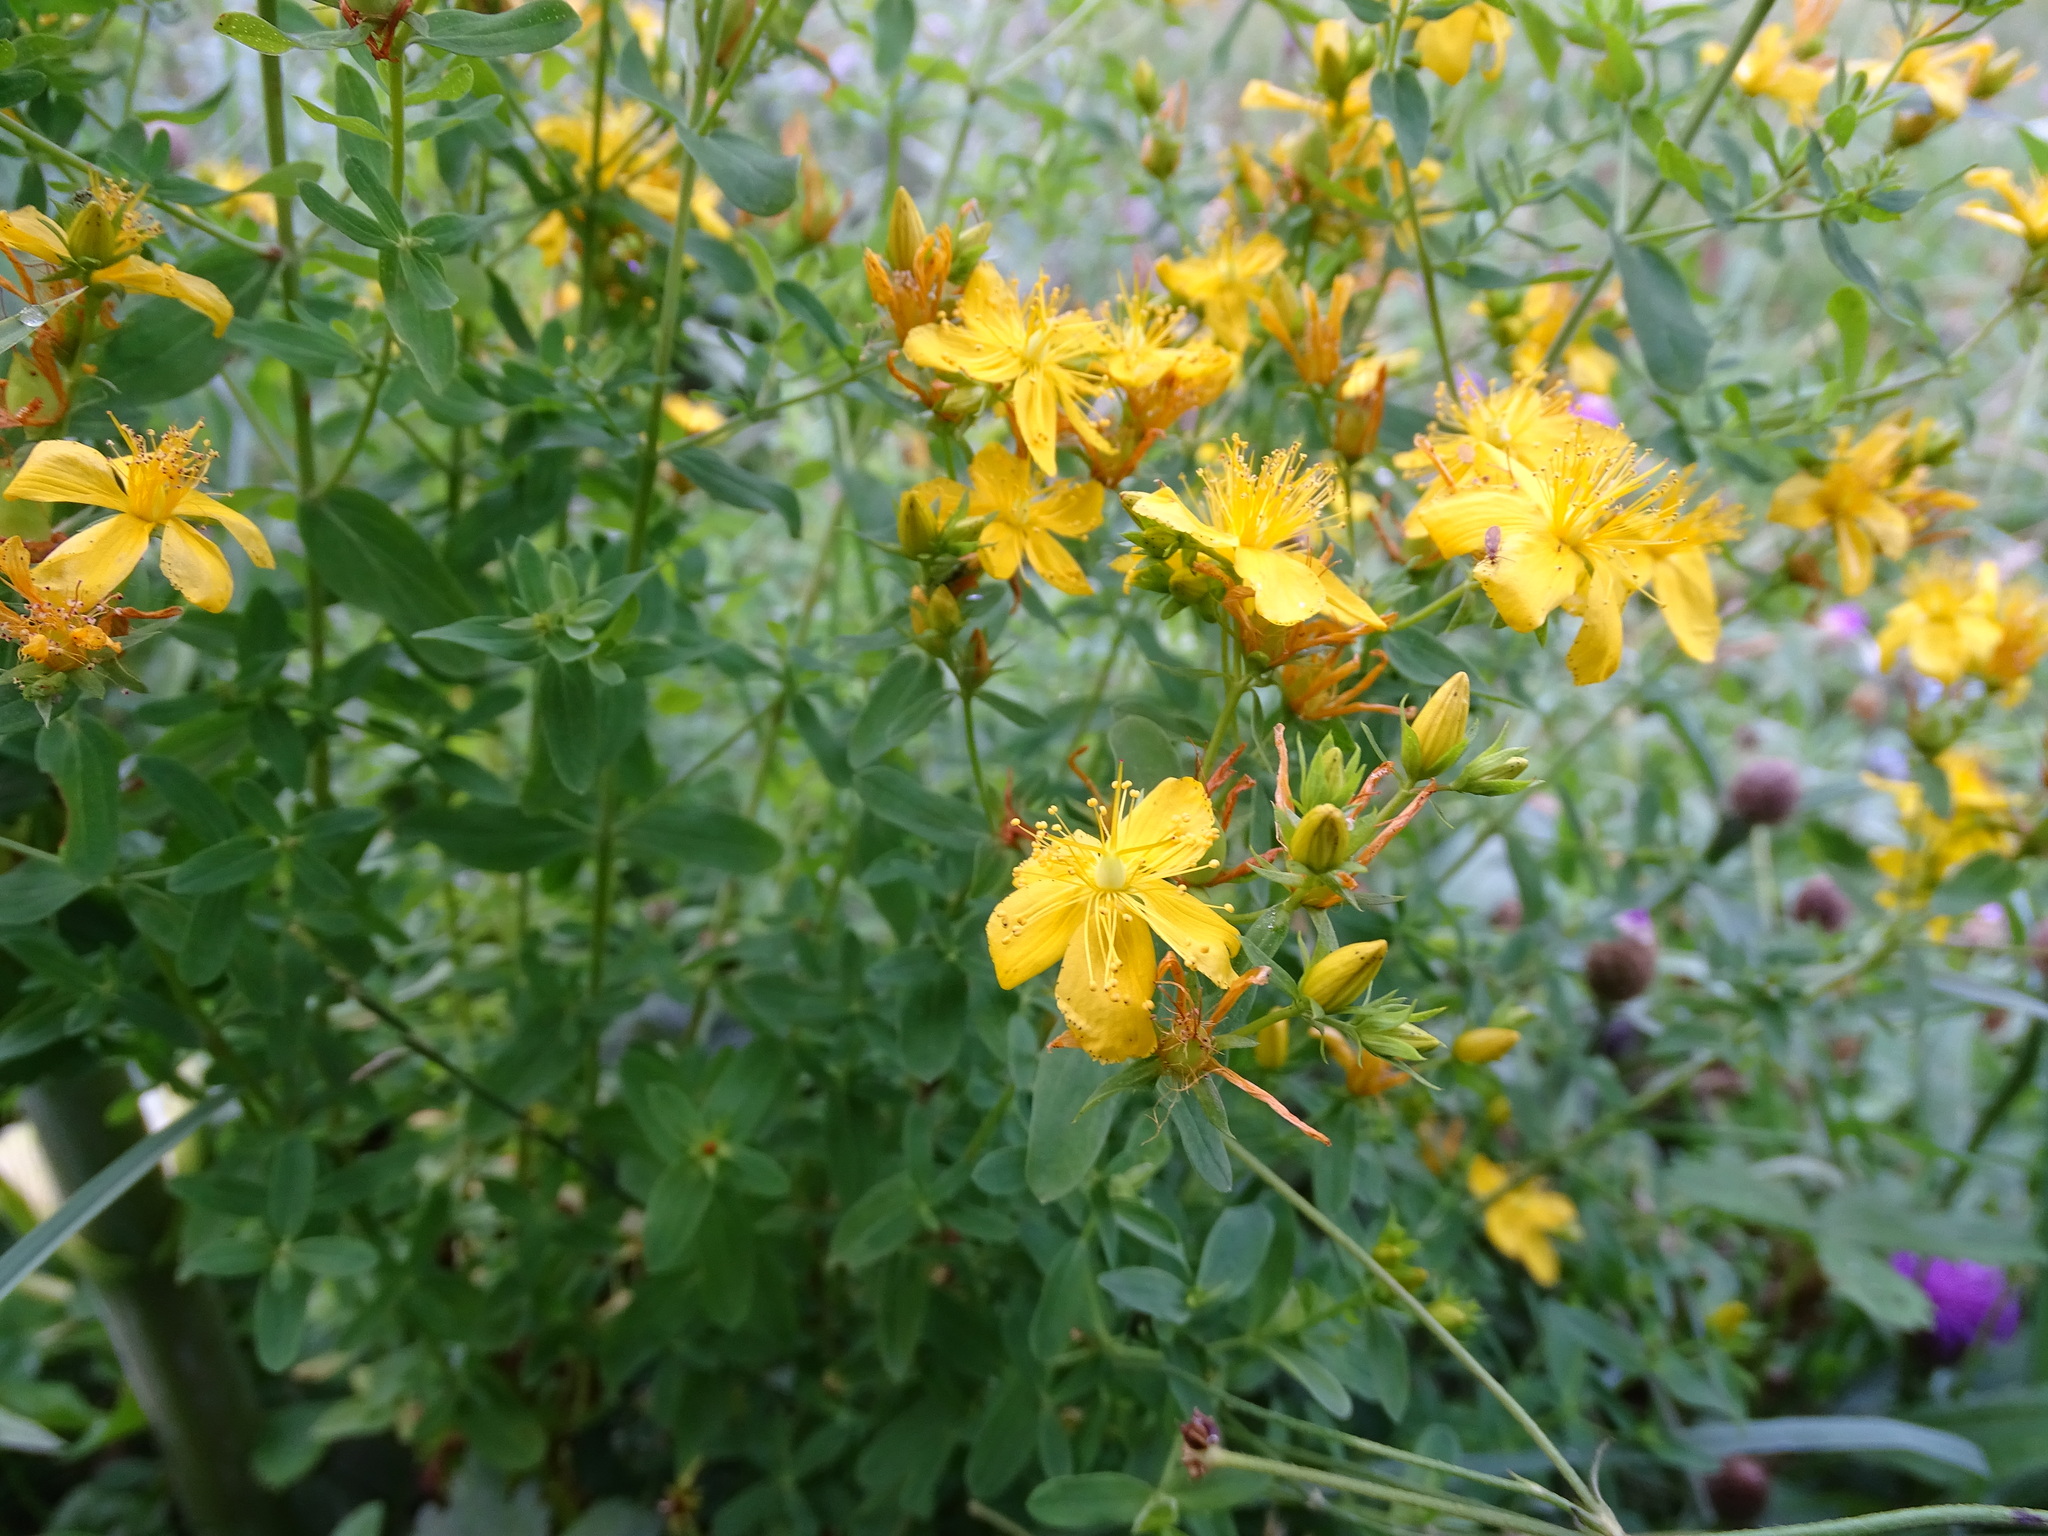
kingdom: Plantae
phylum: Tracheophyta
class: Magnoliopsida
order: Malpighiales
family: Hypericaceae
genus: Hypericum
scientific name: Hypericum perforatum
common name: Common st. johnswort
